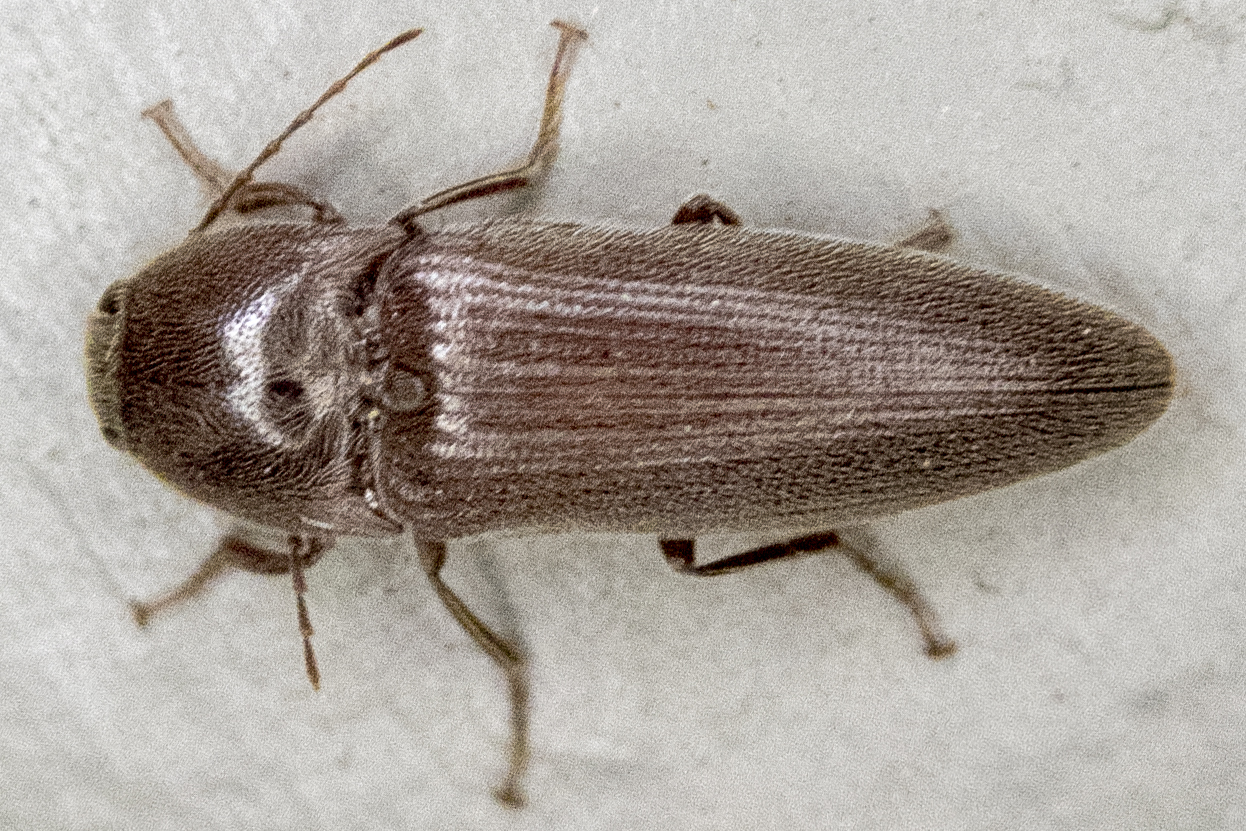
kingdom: Animalia
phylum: Arthropoda
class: Insecta
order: Coleoptera
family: Elateridae
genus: Melanotus
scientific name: Melanotus
